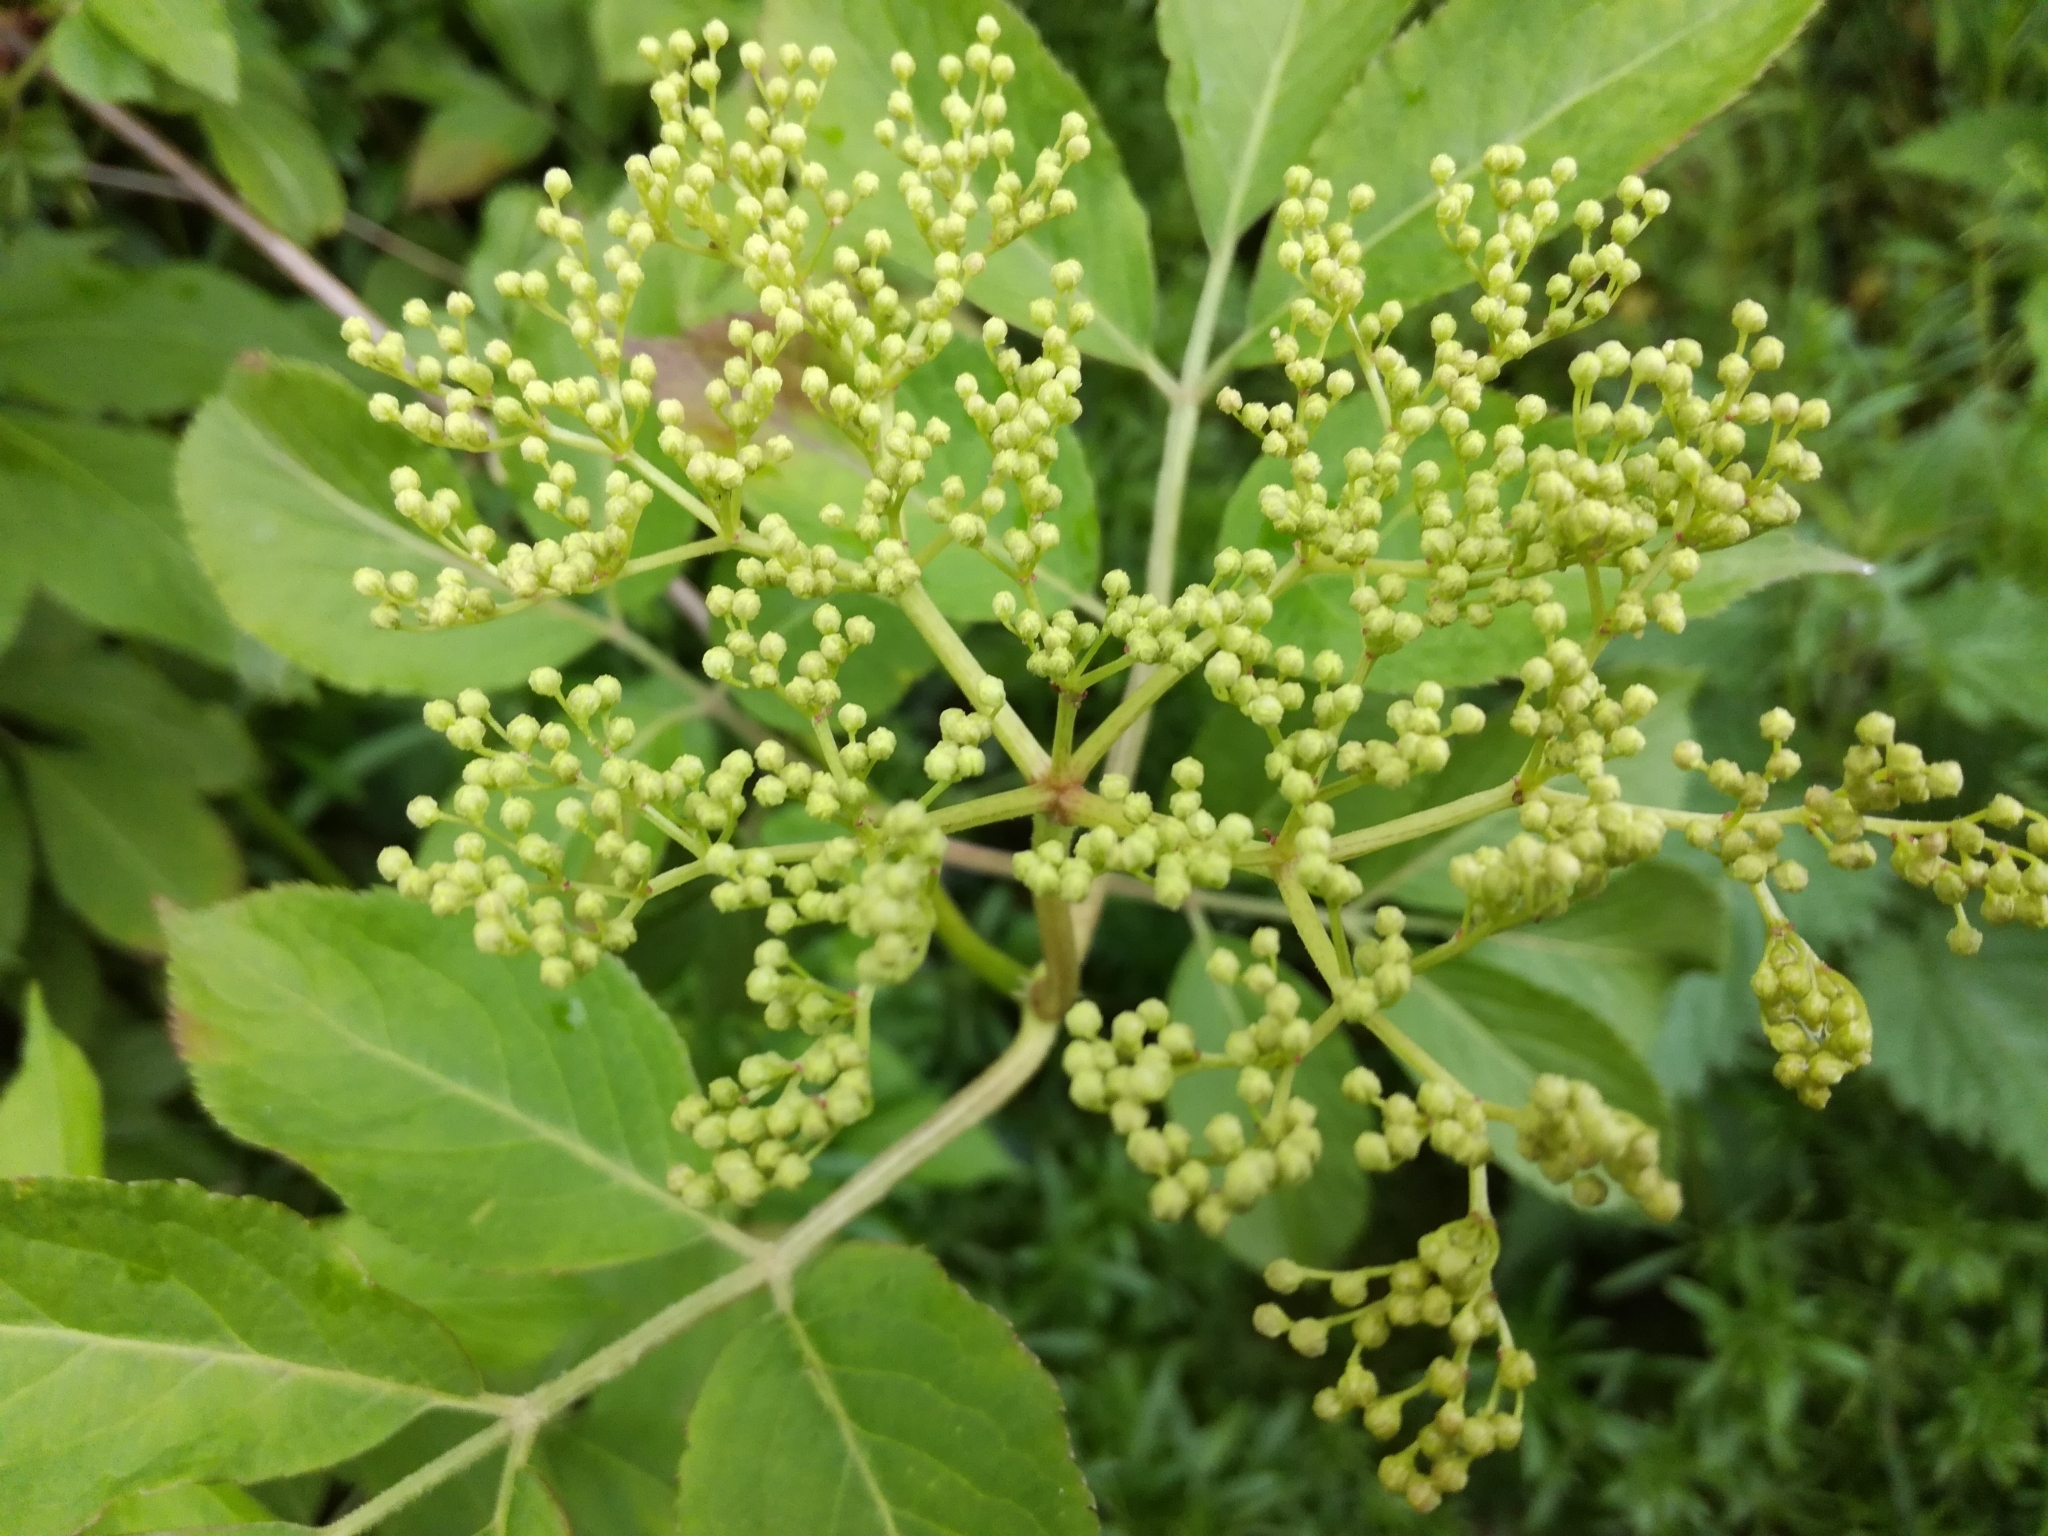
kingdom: Plantae
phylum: Tracheophyta
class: Magnoliopsida
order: Dipsacales
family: Viburnaceae
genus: Sambucus
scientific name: Sambucus nigra
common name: Elder
